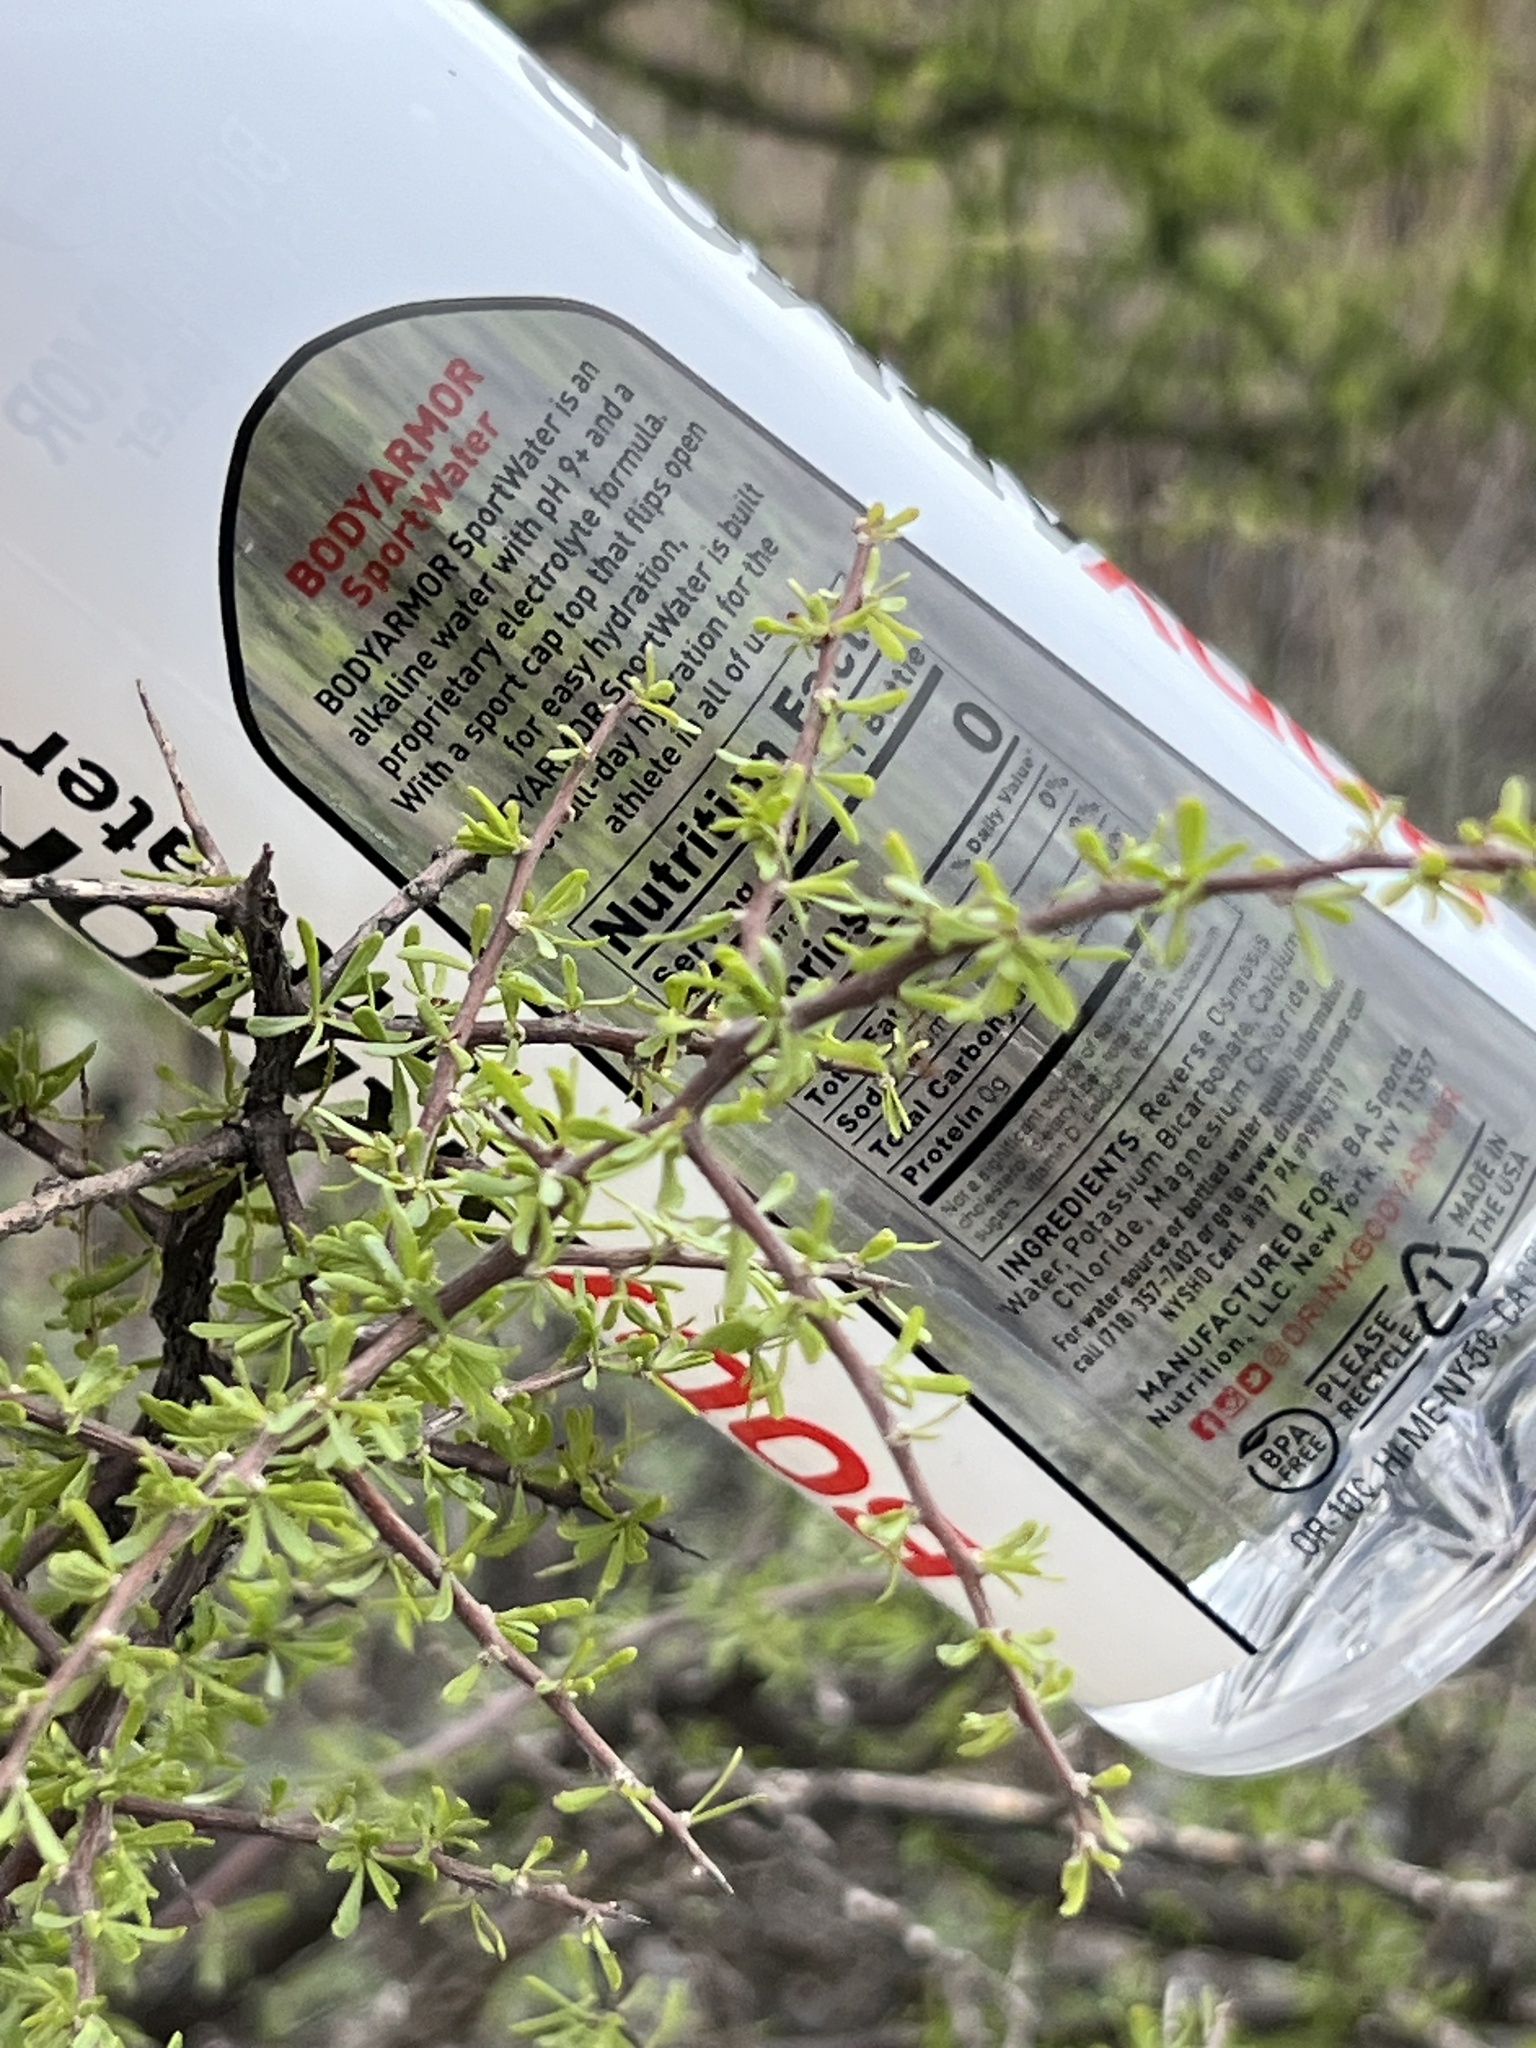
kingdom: Plantae
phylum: Tracheophyta
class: Magnoliopsida
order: Solanales
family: Solanaceae
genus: Lycium
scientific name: Lycium berlandieri
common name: Berlandier wolfberry
